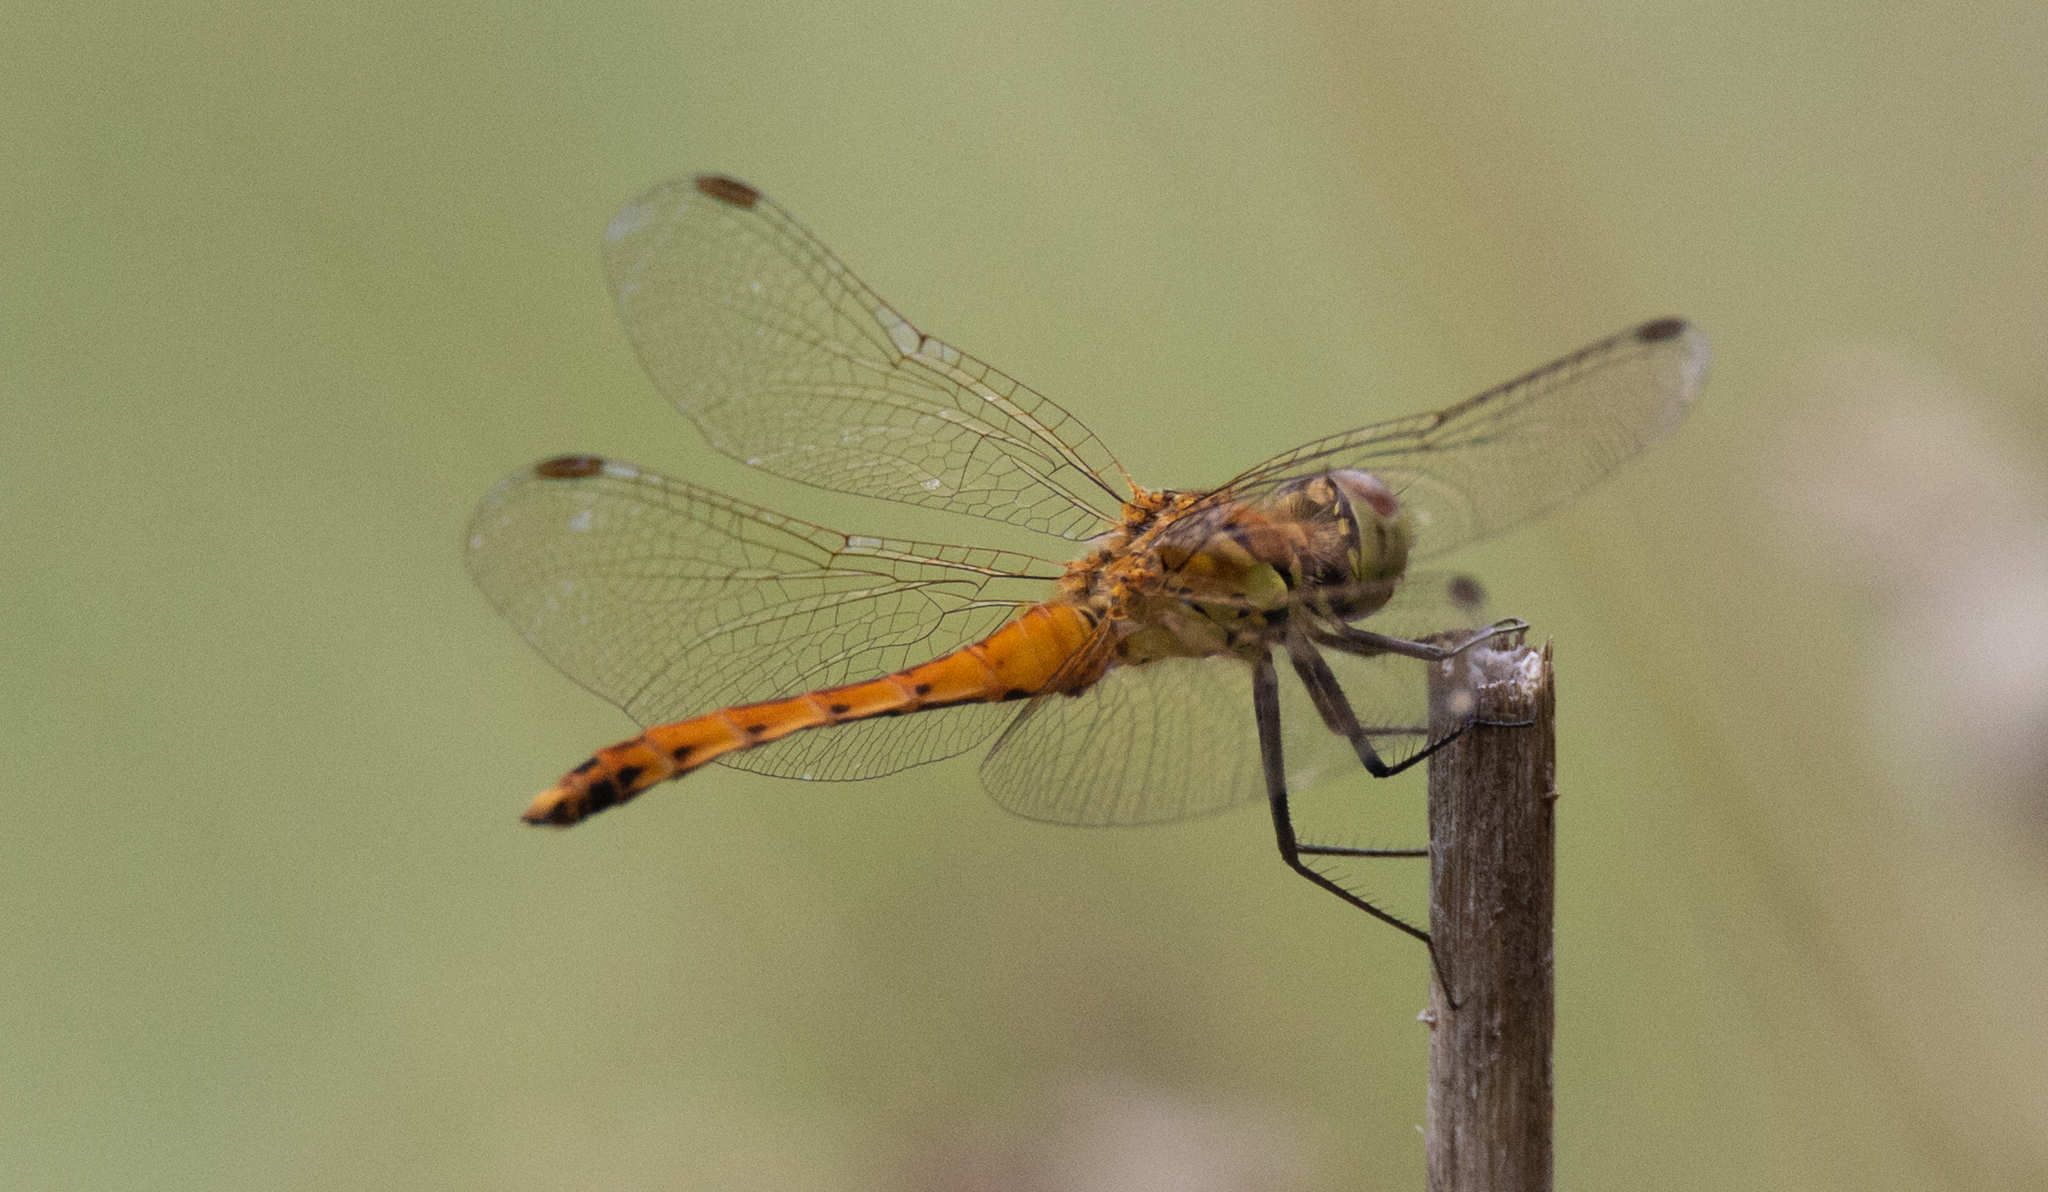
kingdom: Animalia
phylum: Arthropoda
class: Insecta
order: Odonata
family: Libellulidae
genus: Sympetrum
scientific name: Sympetrum depressiusculum
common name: Spotted darter
